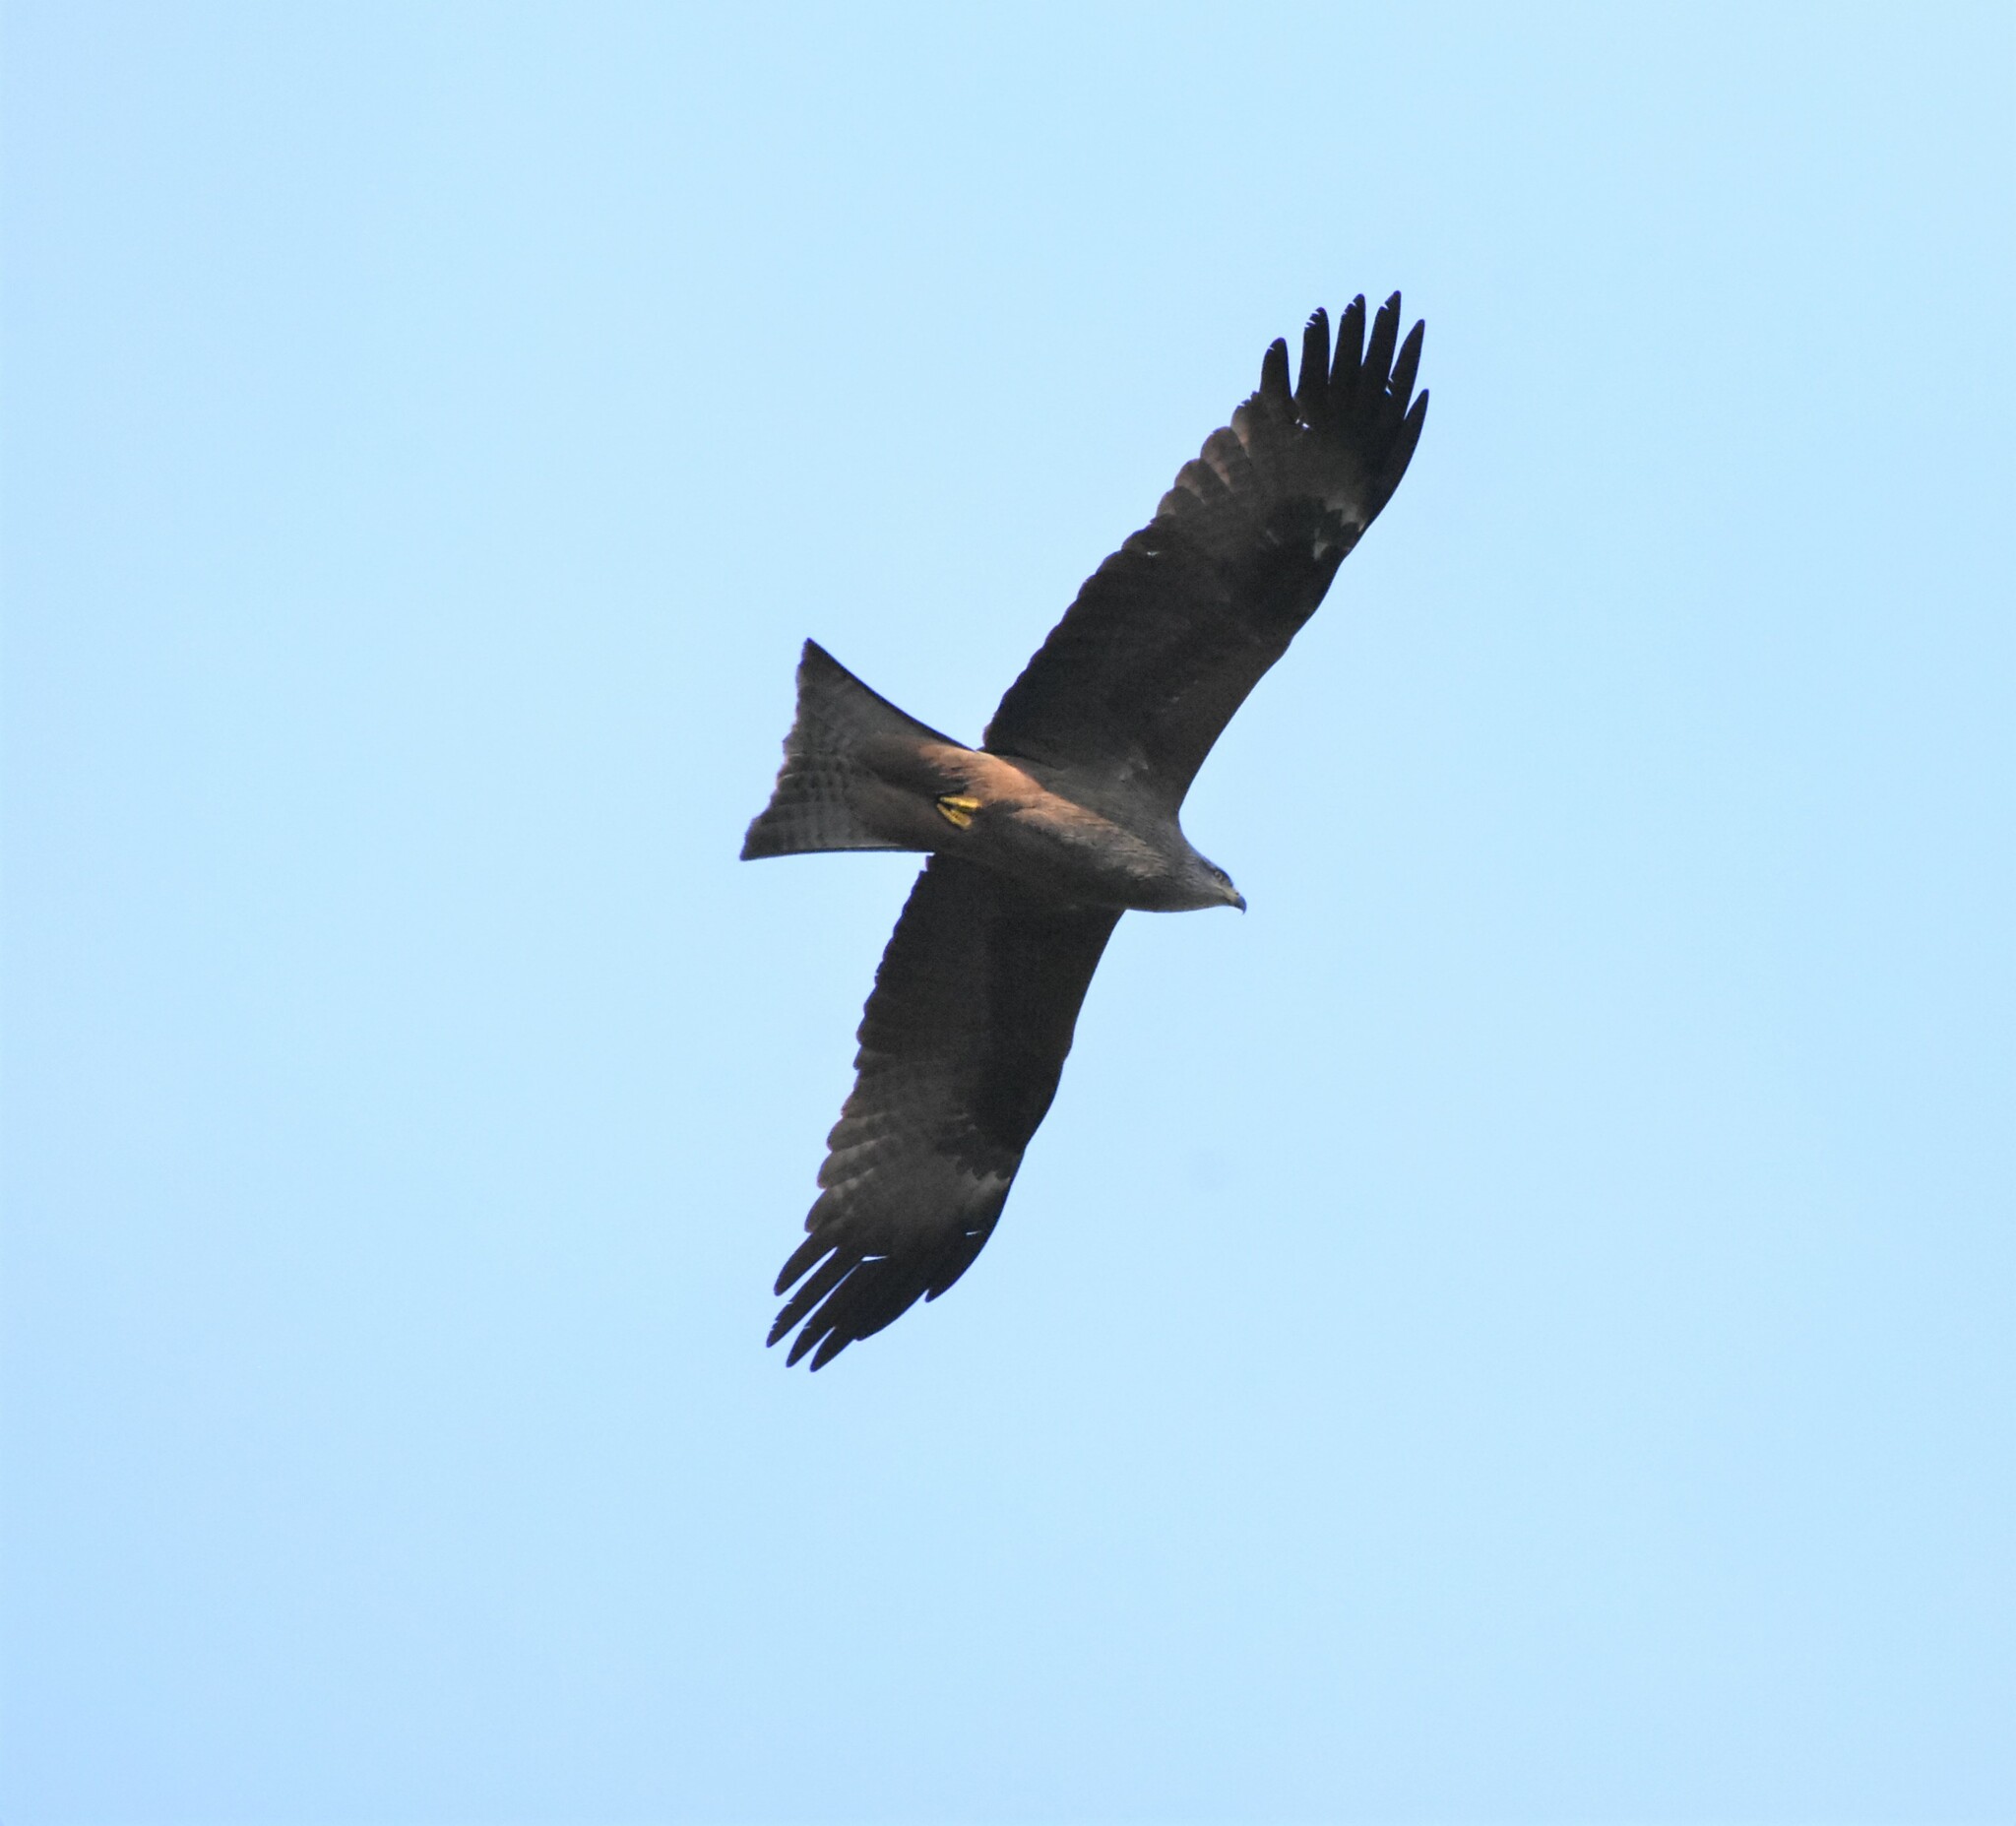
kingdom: Animalia
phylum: Chordata
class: Aves
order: Accipitriformes
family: Accipitridae
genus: Milvus
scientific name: Milvus migrans
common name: Black kite
